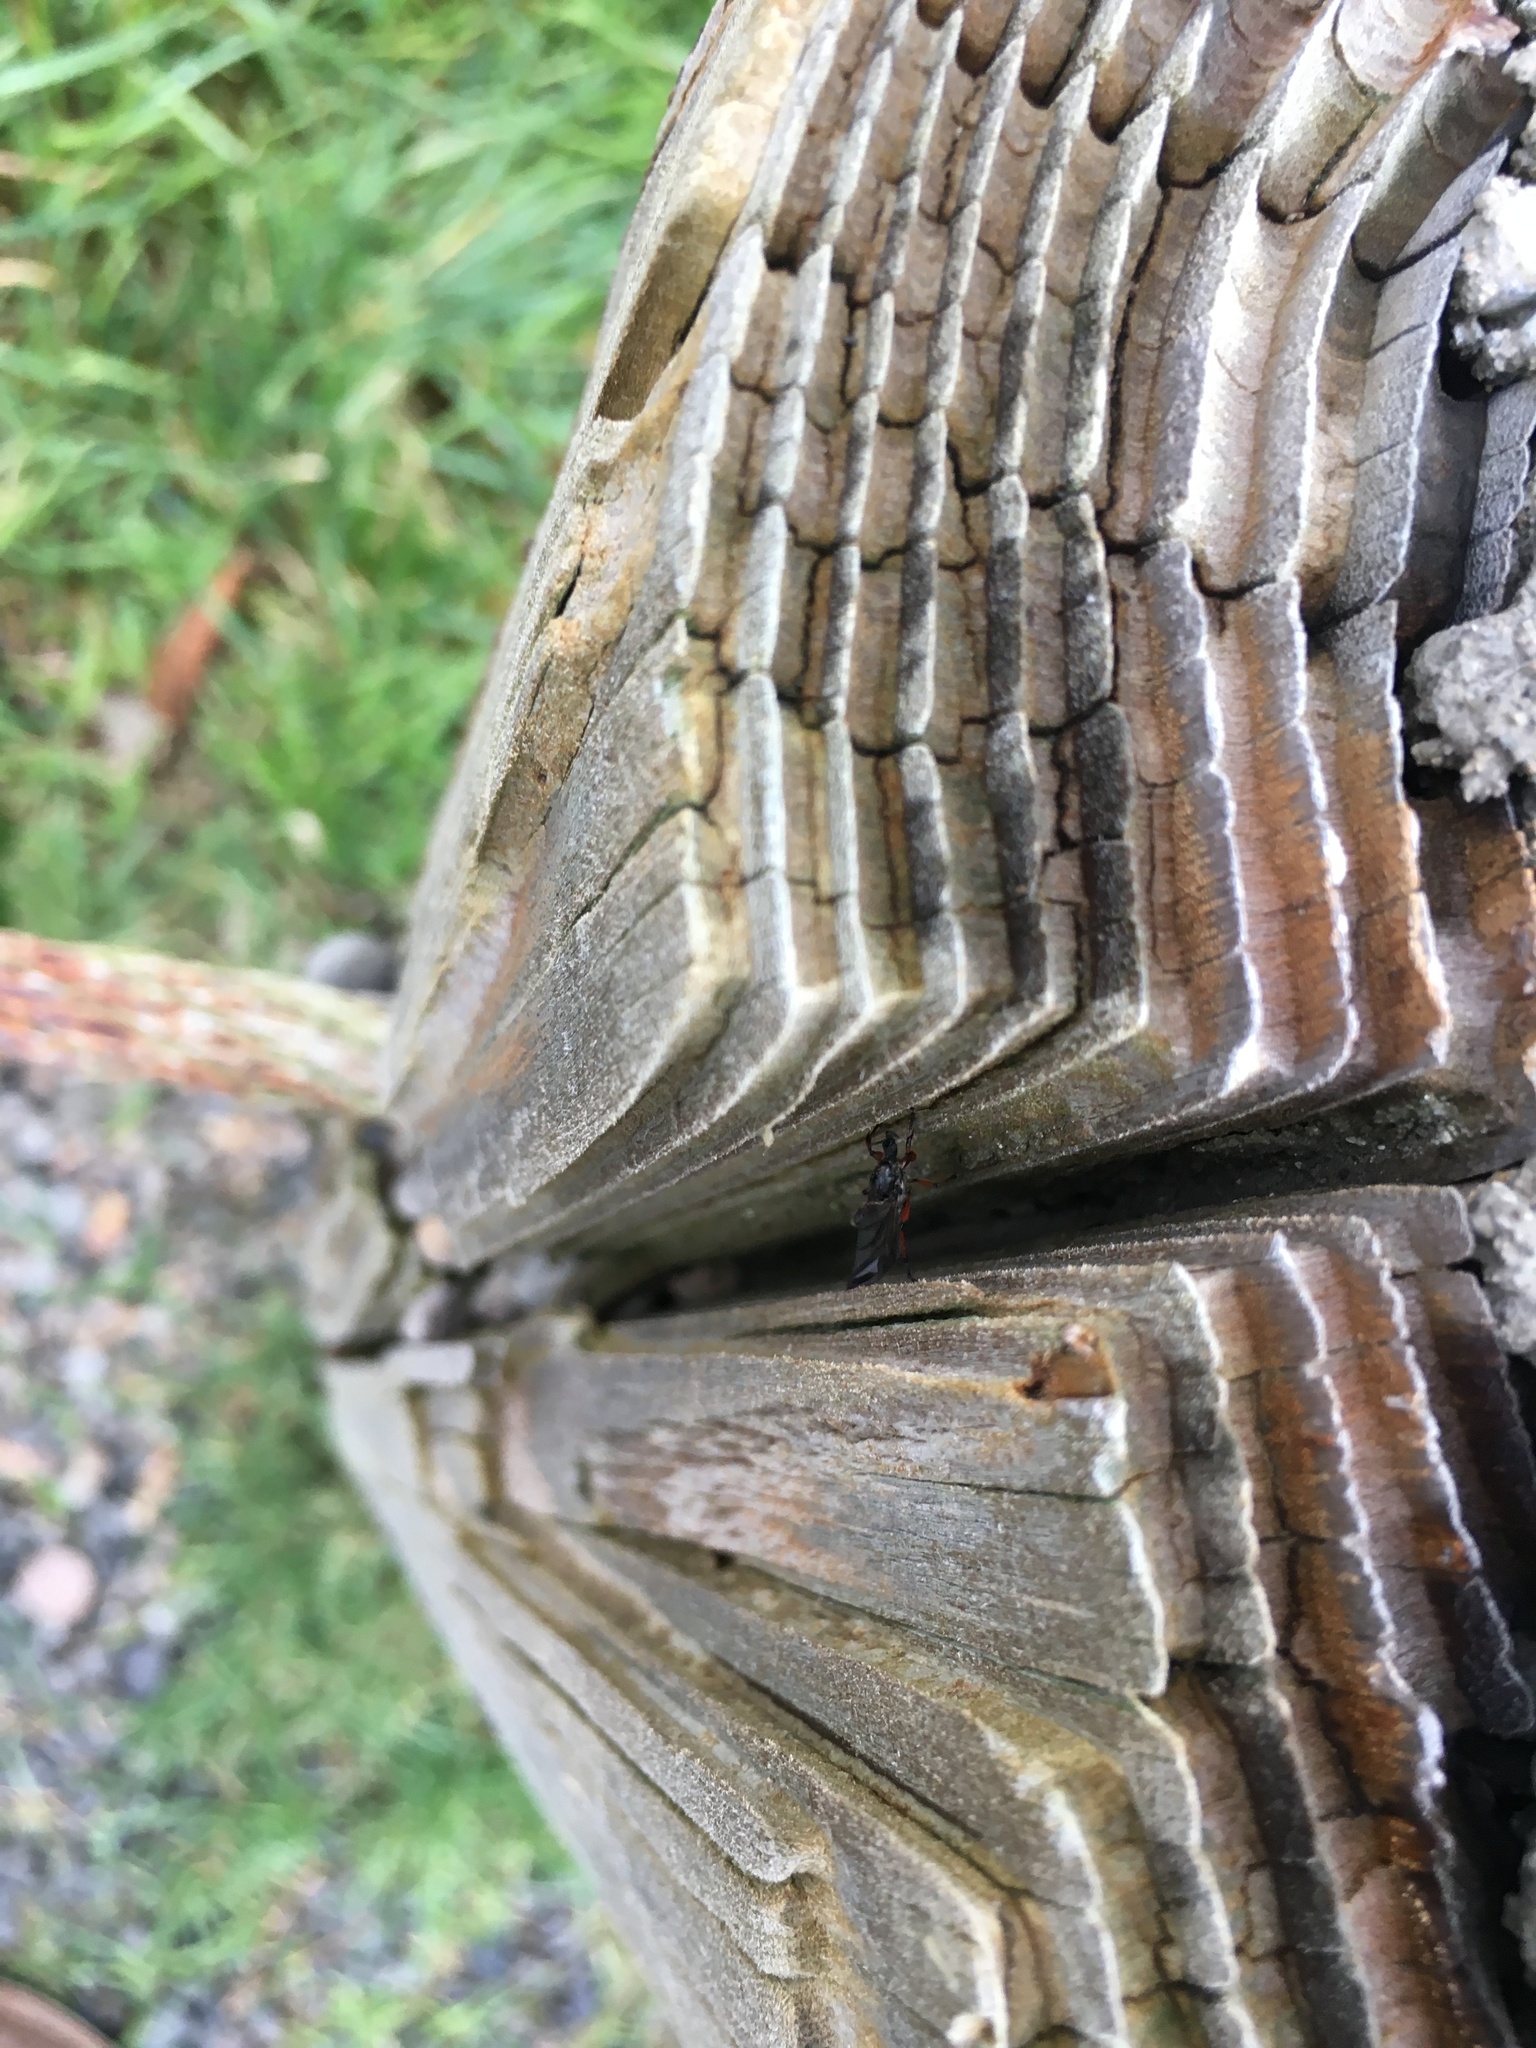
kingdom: Animalia
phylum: Arthropoda
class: Insecta
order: Diptera
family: Bibionidae
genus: Bibio
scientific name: Bibio
